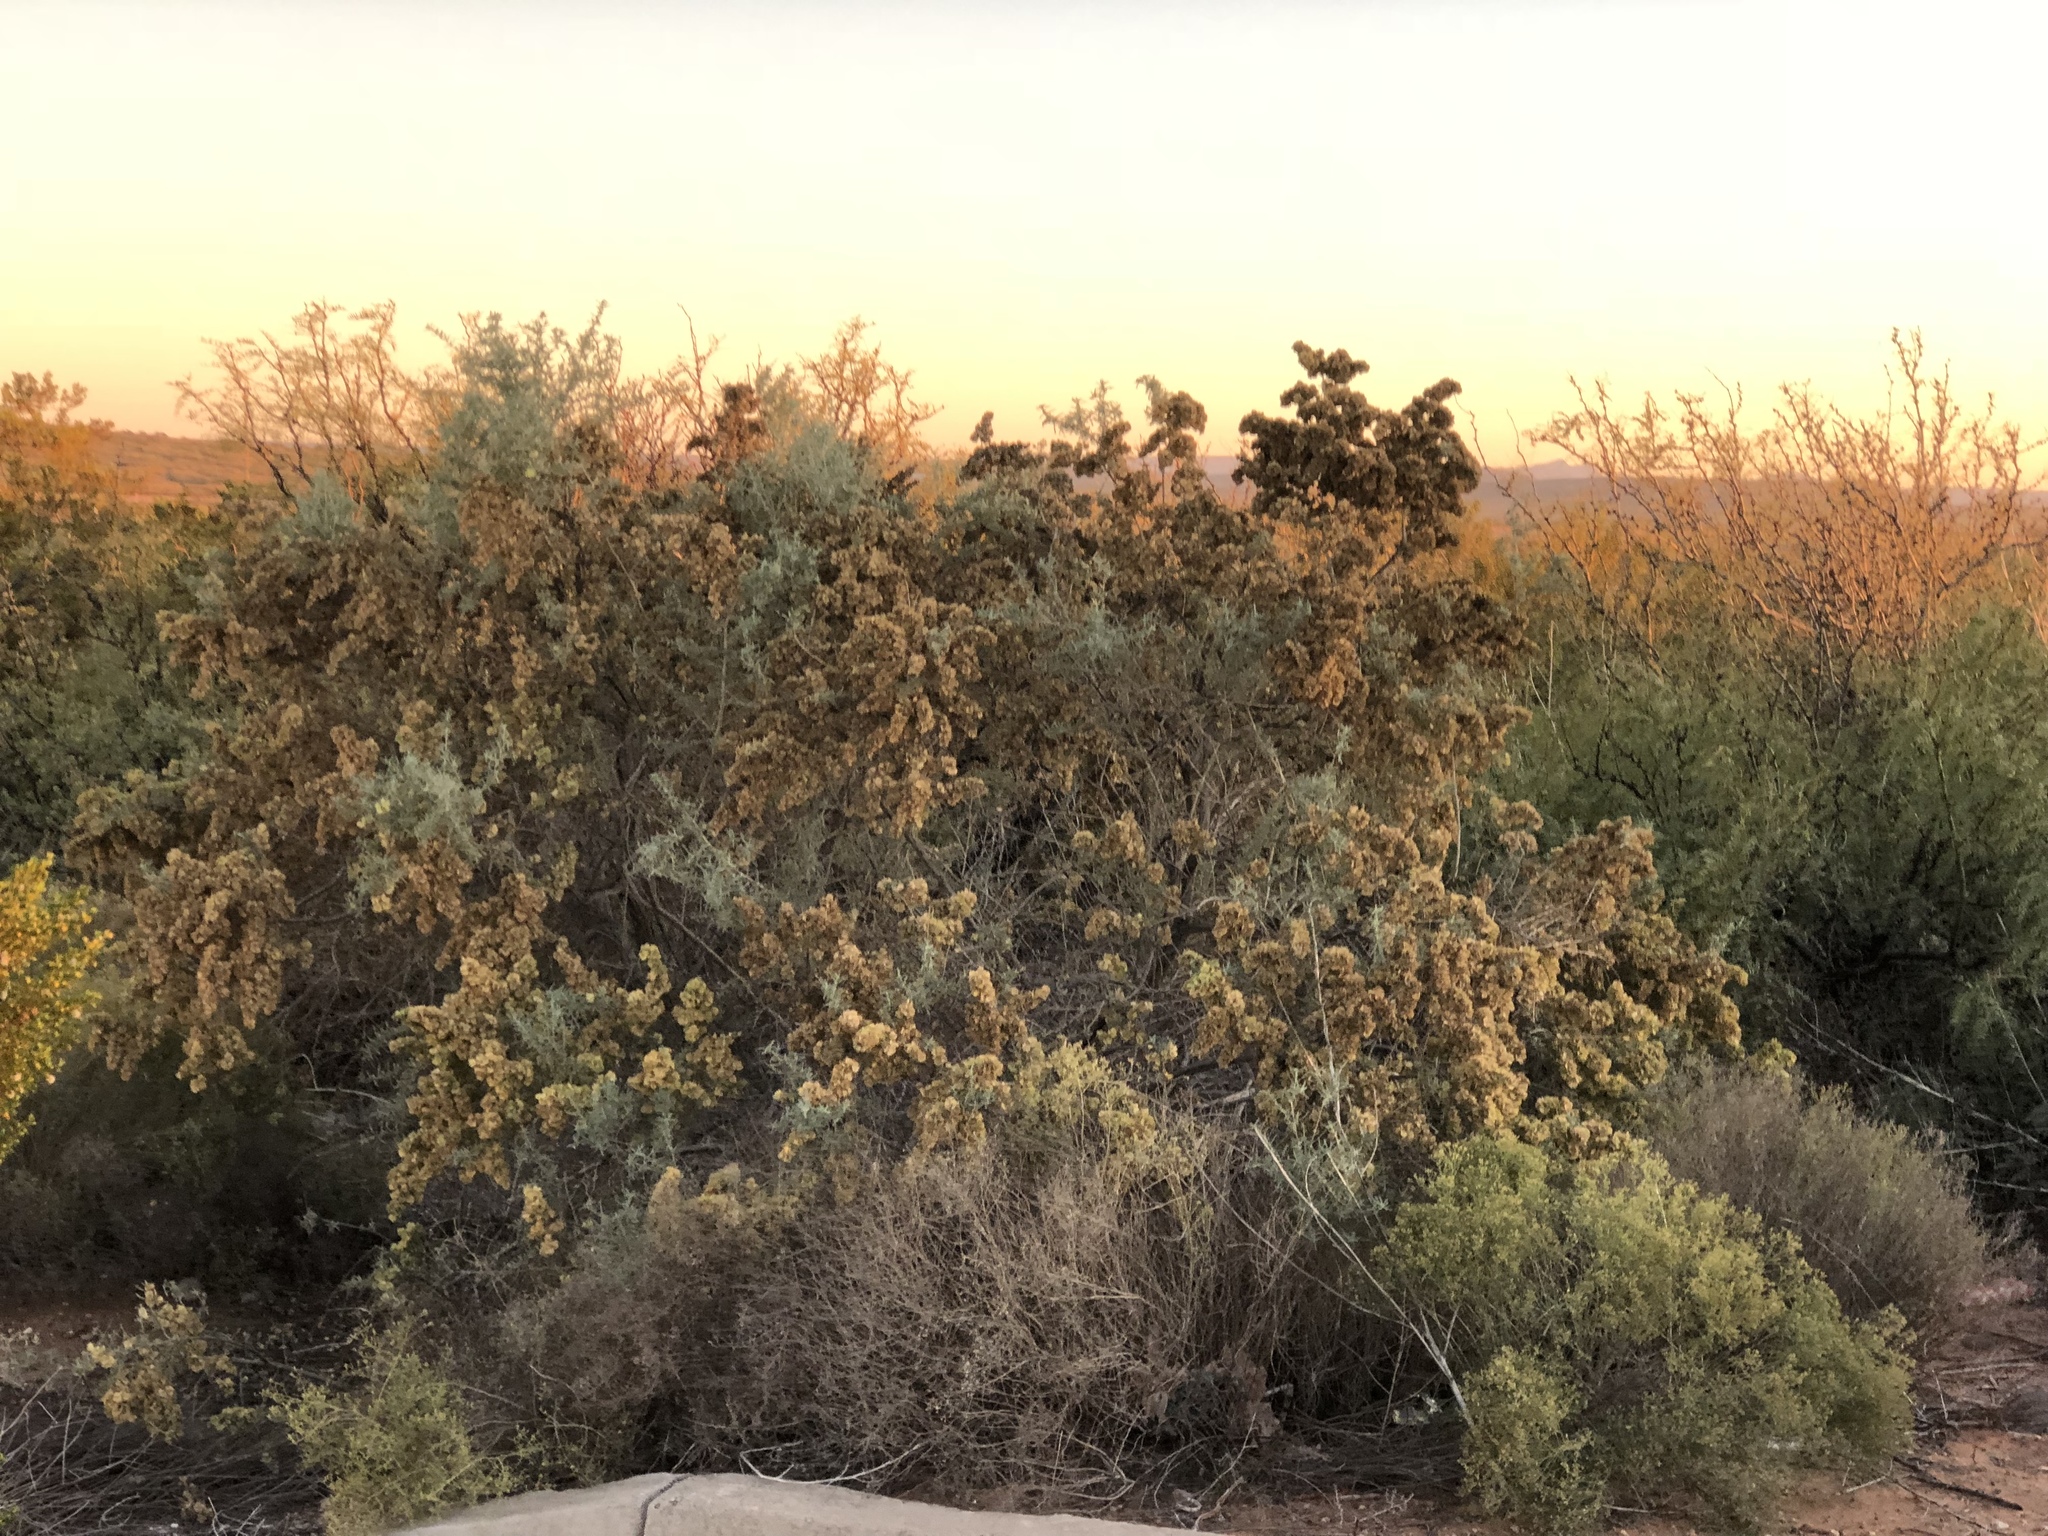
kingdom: Plantae
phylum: Tracheophyta
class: Magnoliopsida
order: Caryophyllales
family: Amaranthaceae
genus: Atriplex
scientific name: Atriplex canescens
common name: Four-wing saltbush
